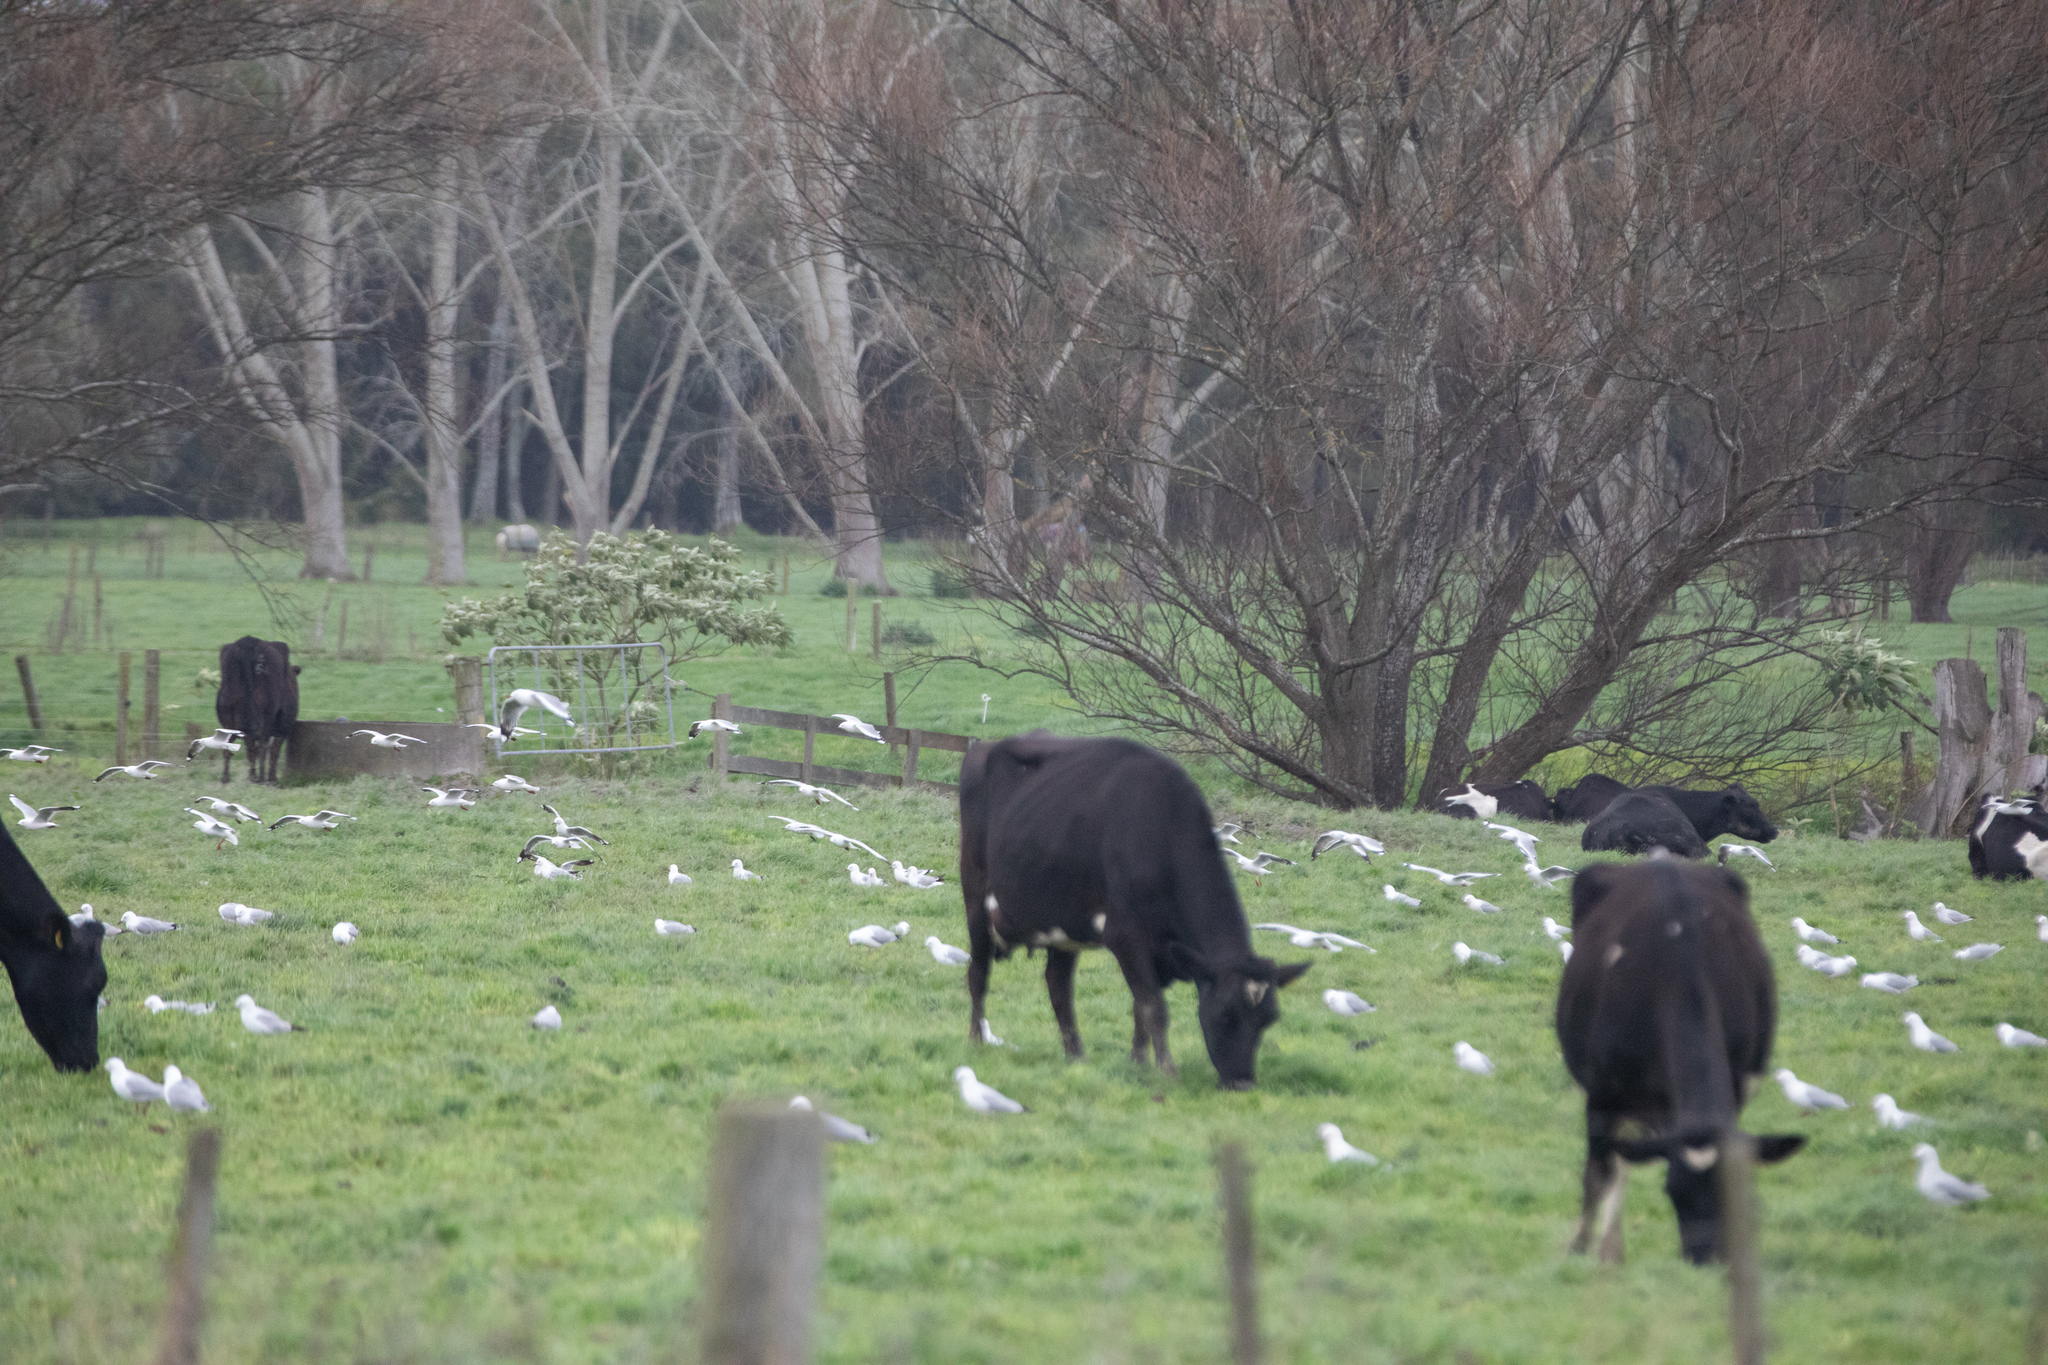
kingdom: Animalia
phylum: Chordata
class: Aves
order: Charadriiformes
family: Laridae
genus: Chroicocephalus
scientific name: Chroicocephalus novaehollandiae
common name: Silver gull
